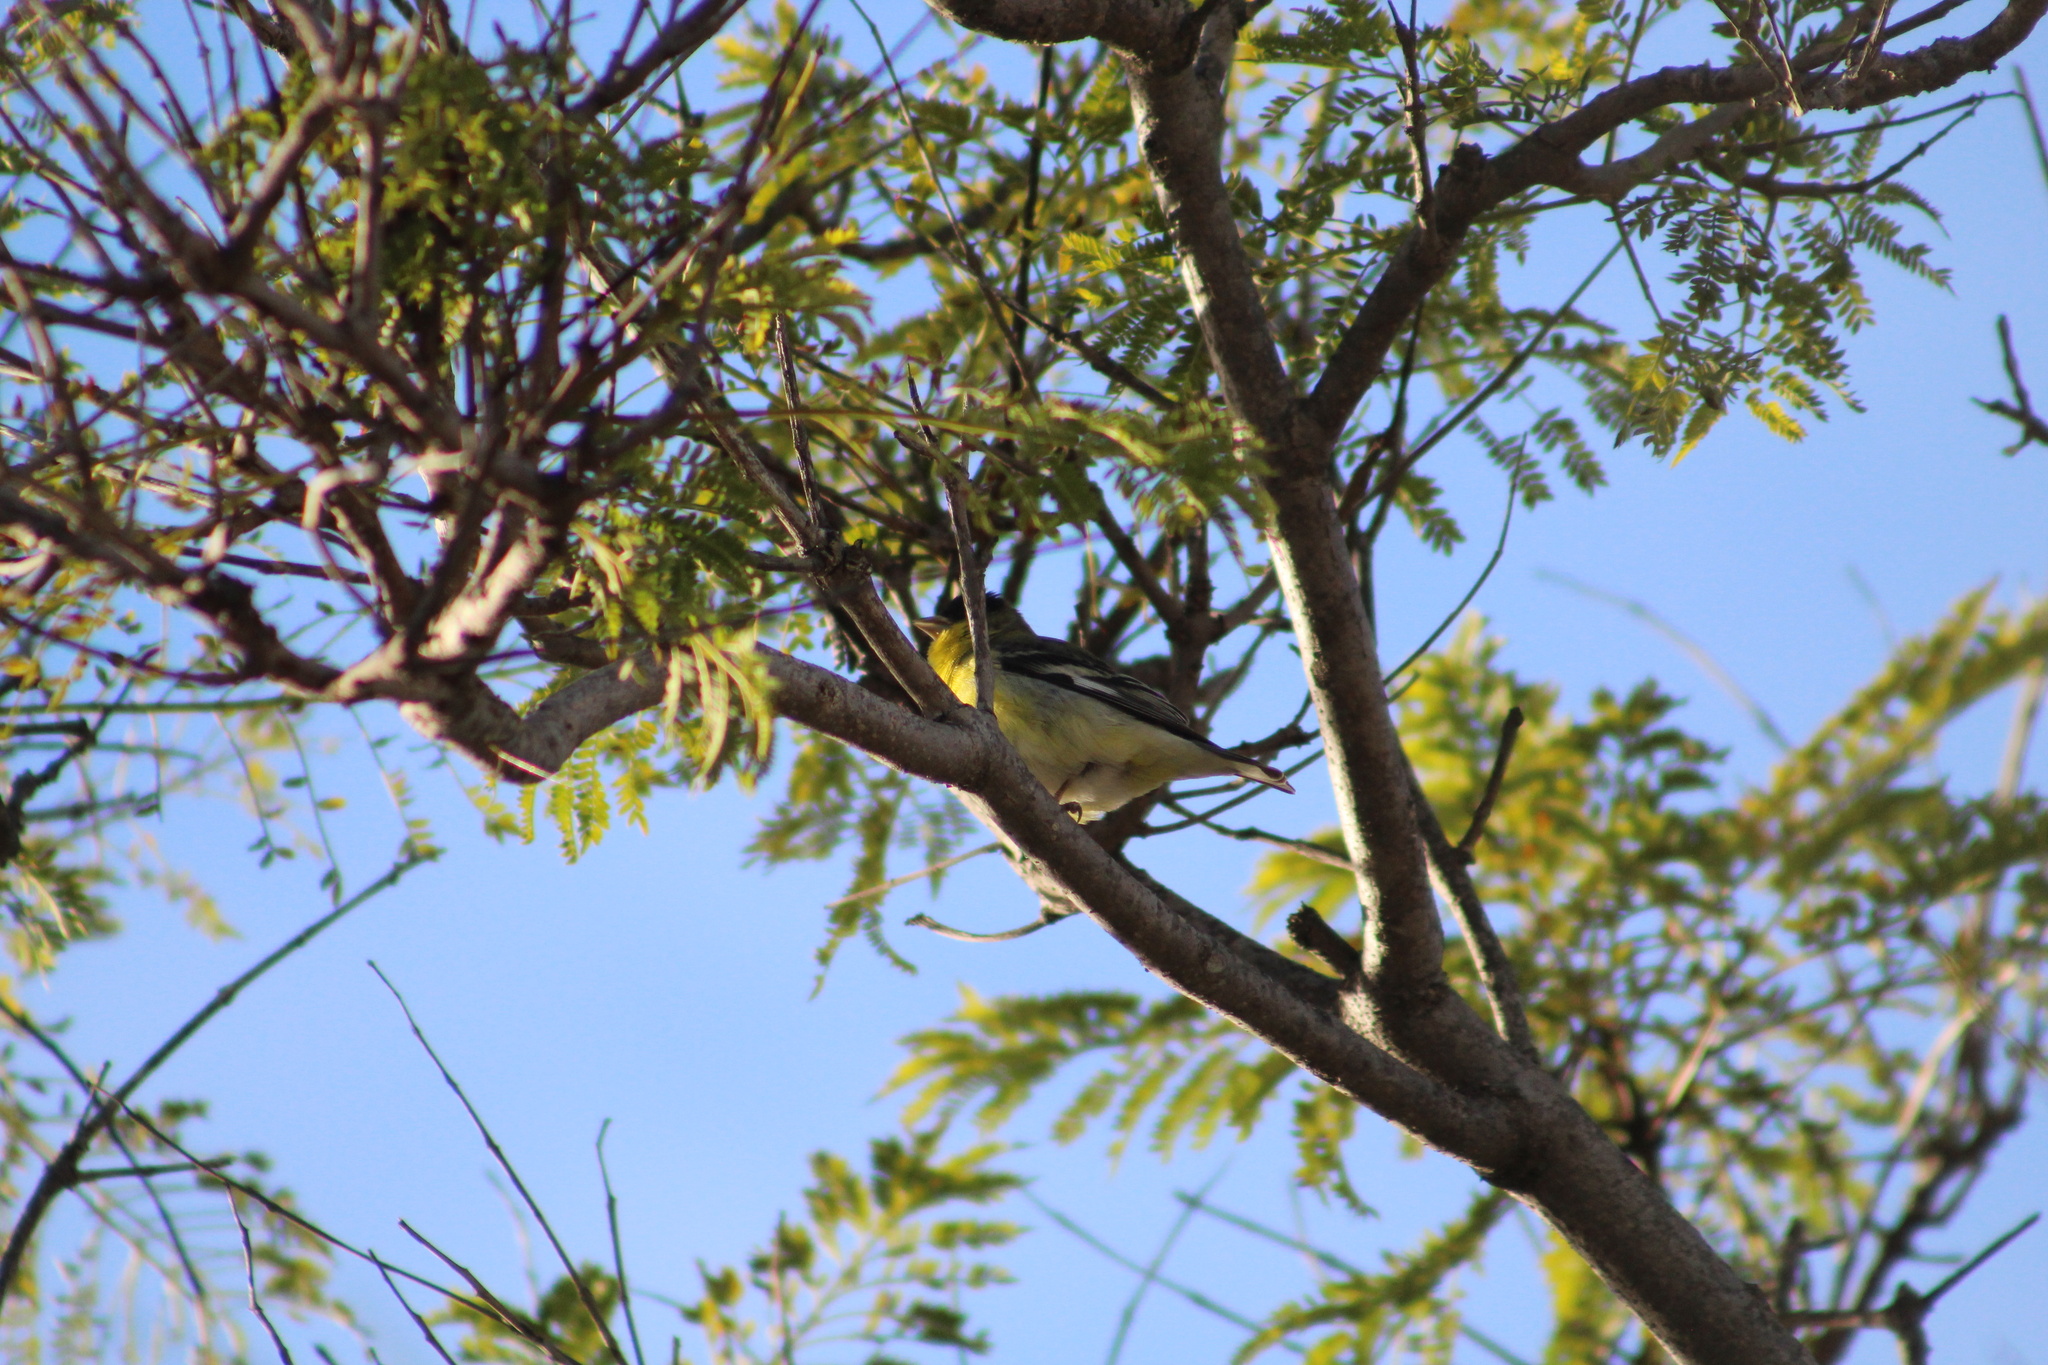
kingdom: Animalia
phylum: Chordata
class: Aves
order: Passeriformes
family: Fringillidae
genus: Spinus
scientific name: Spinus psaltria
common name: Lesser goldfinch
